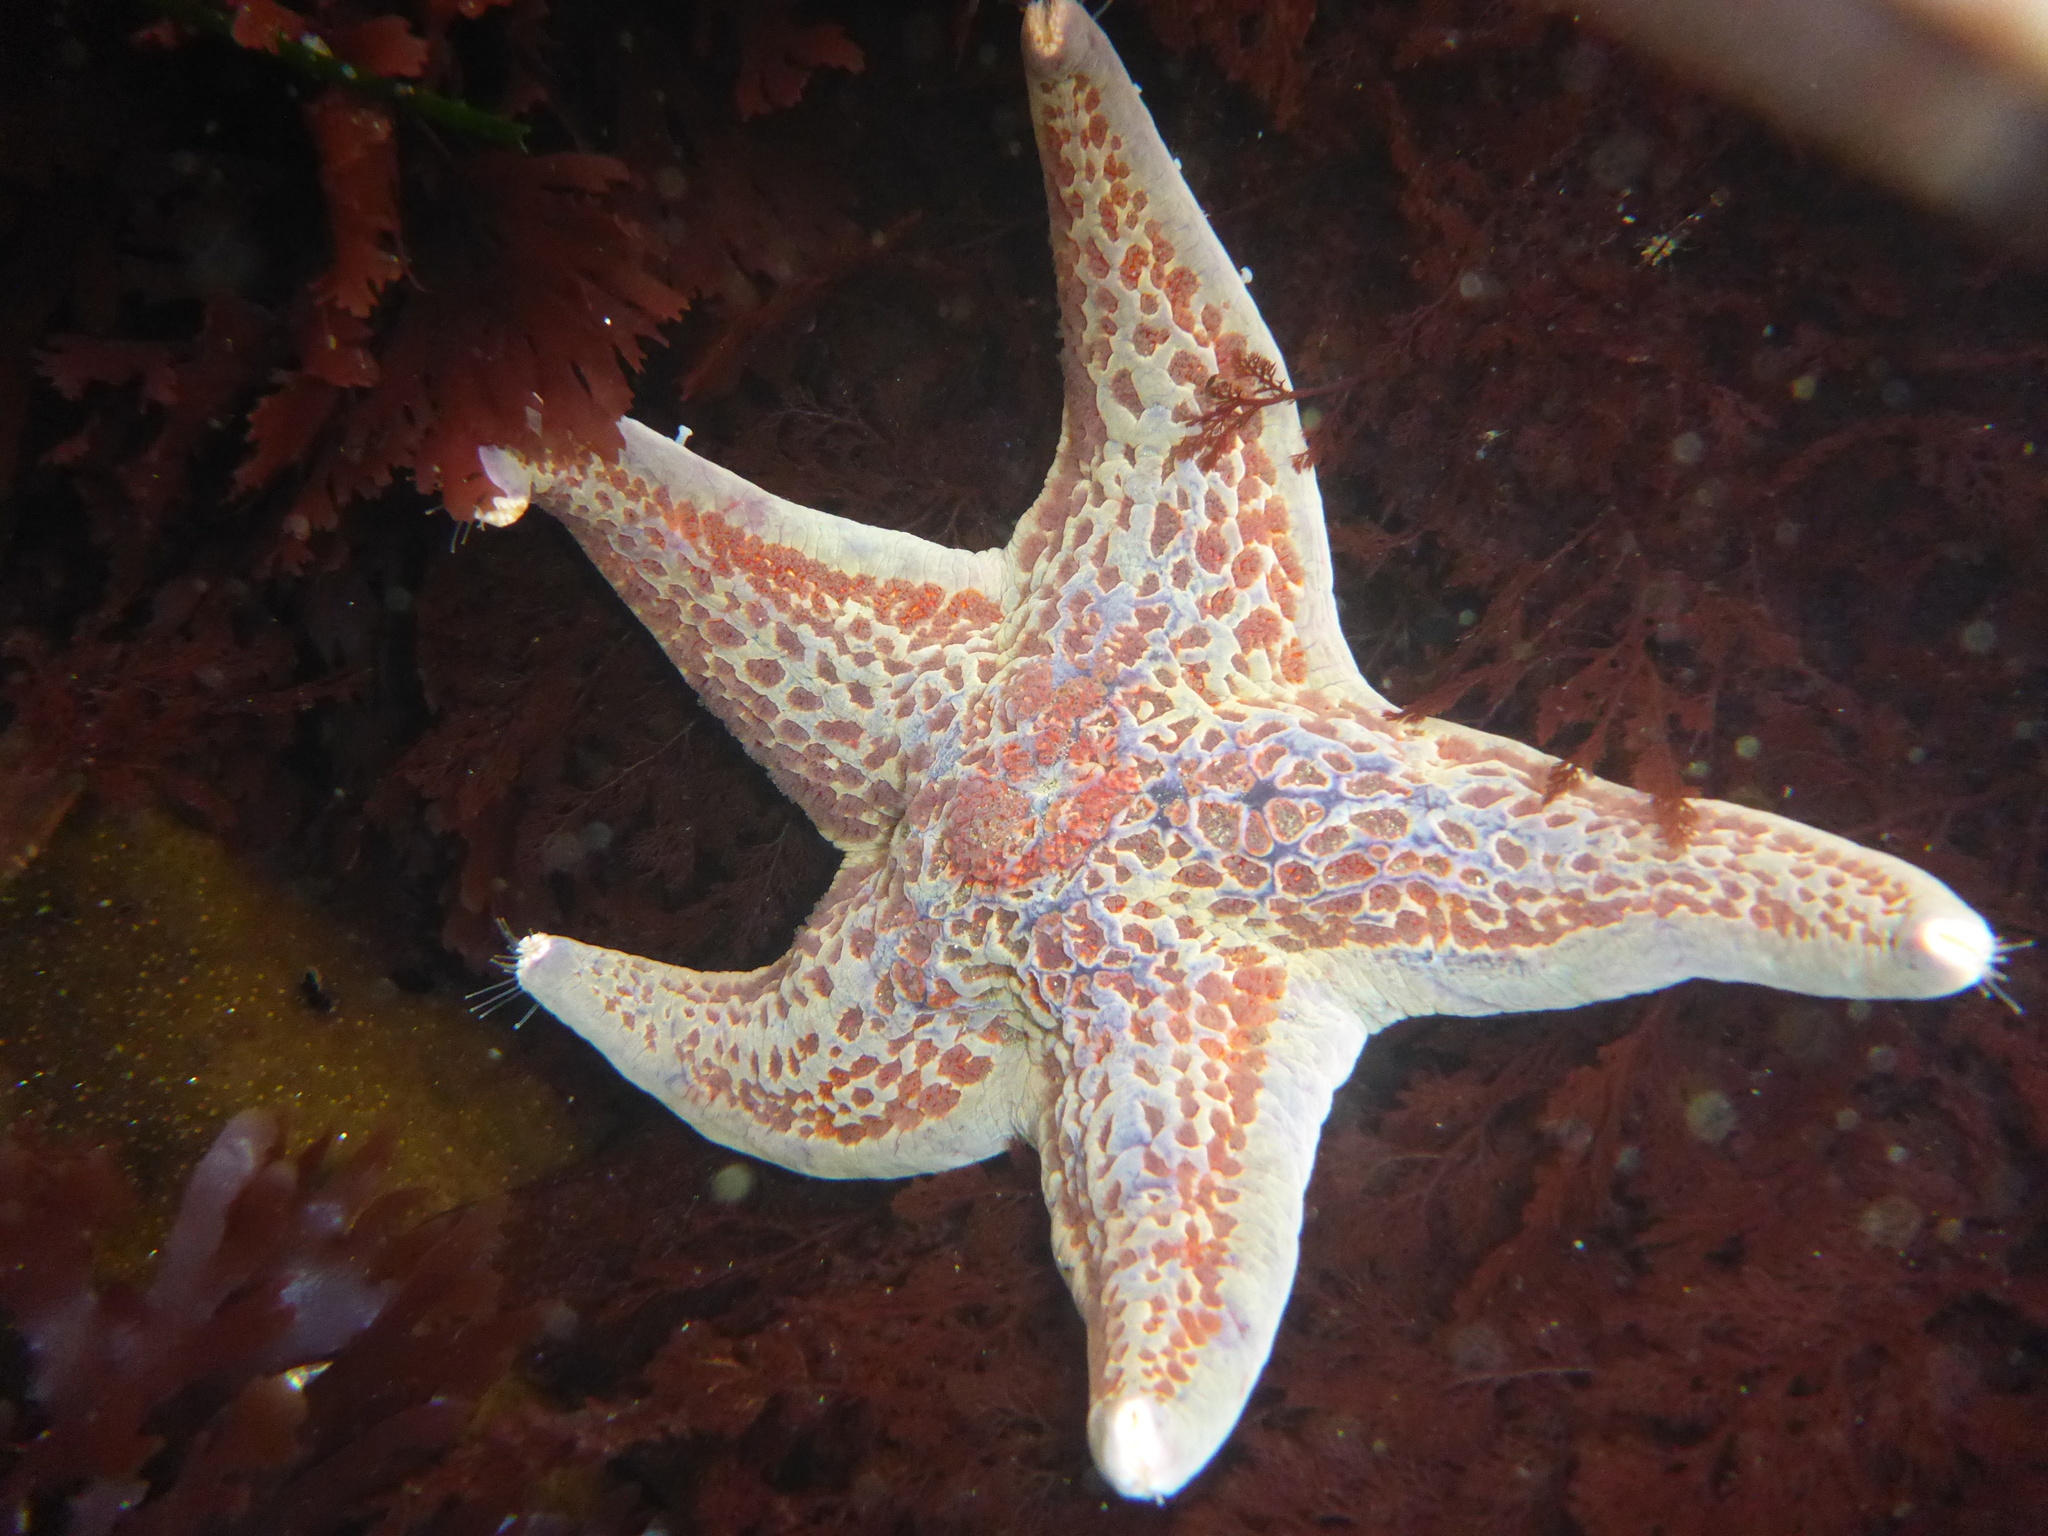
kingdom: Animalia
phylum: Echinodermata
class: Asteroidea
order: Valvatida
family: Asteropseidae
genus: Dermasterias
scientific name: Dermasterias imbricata
